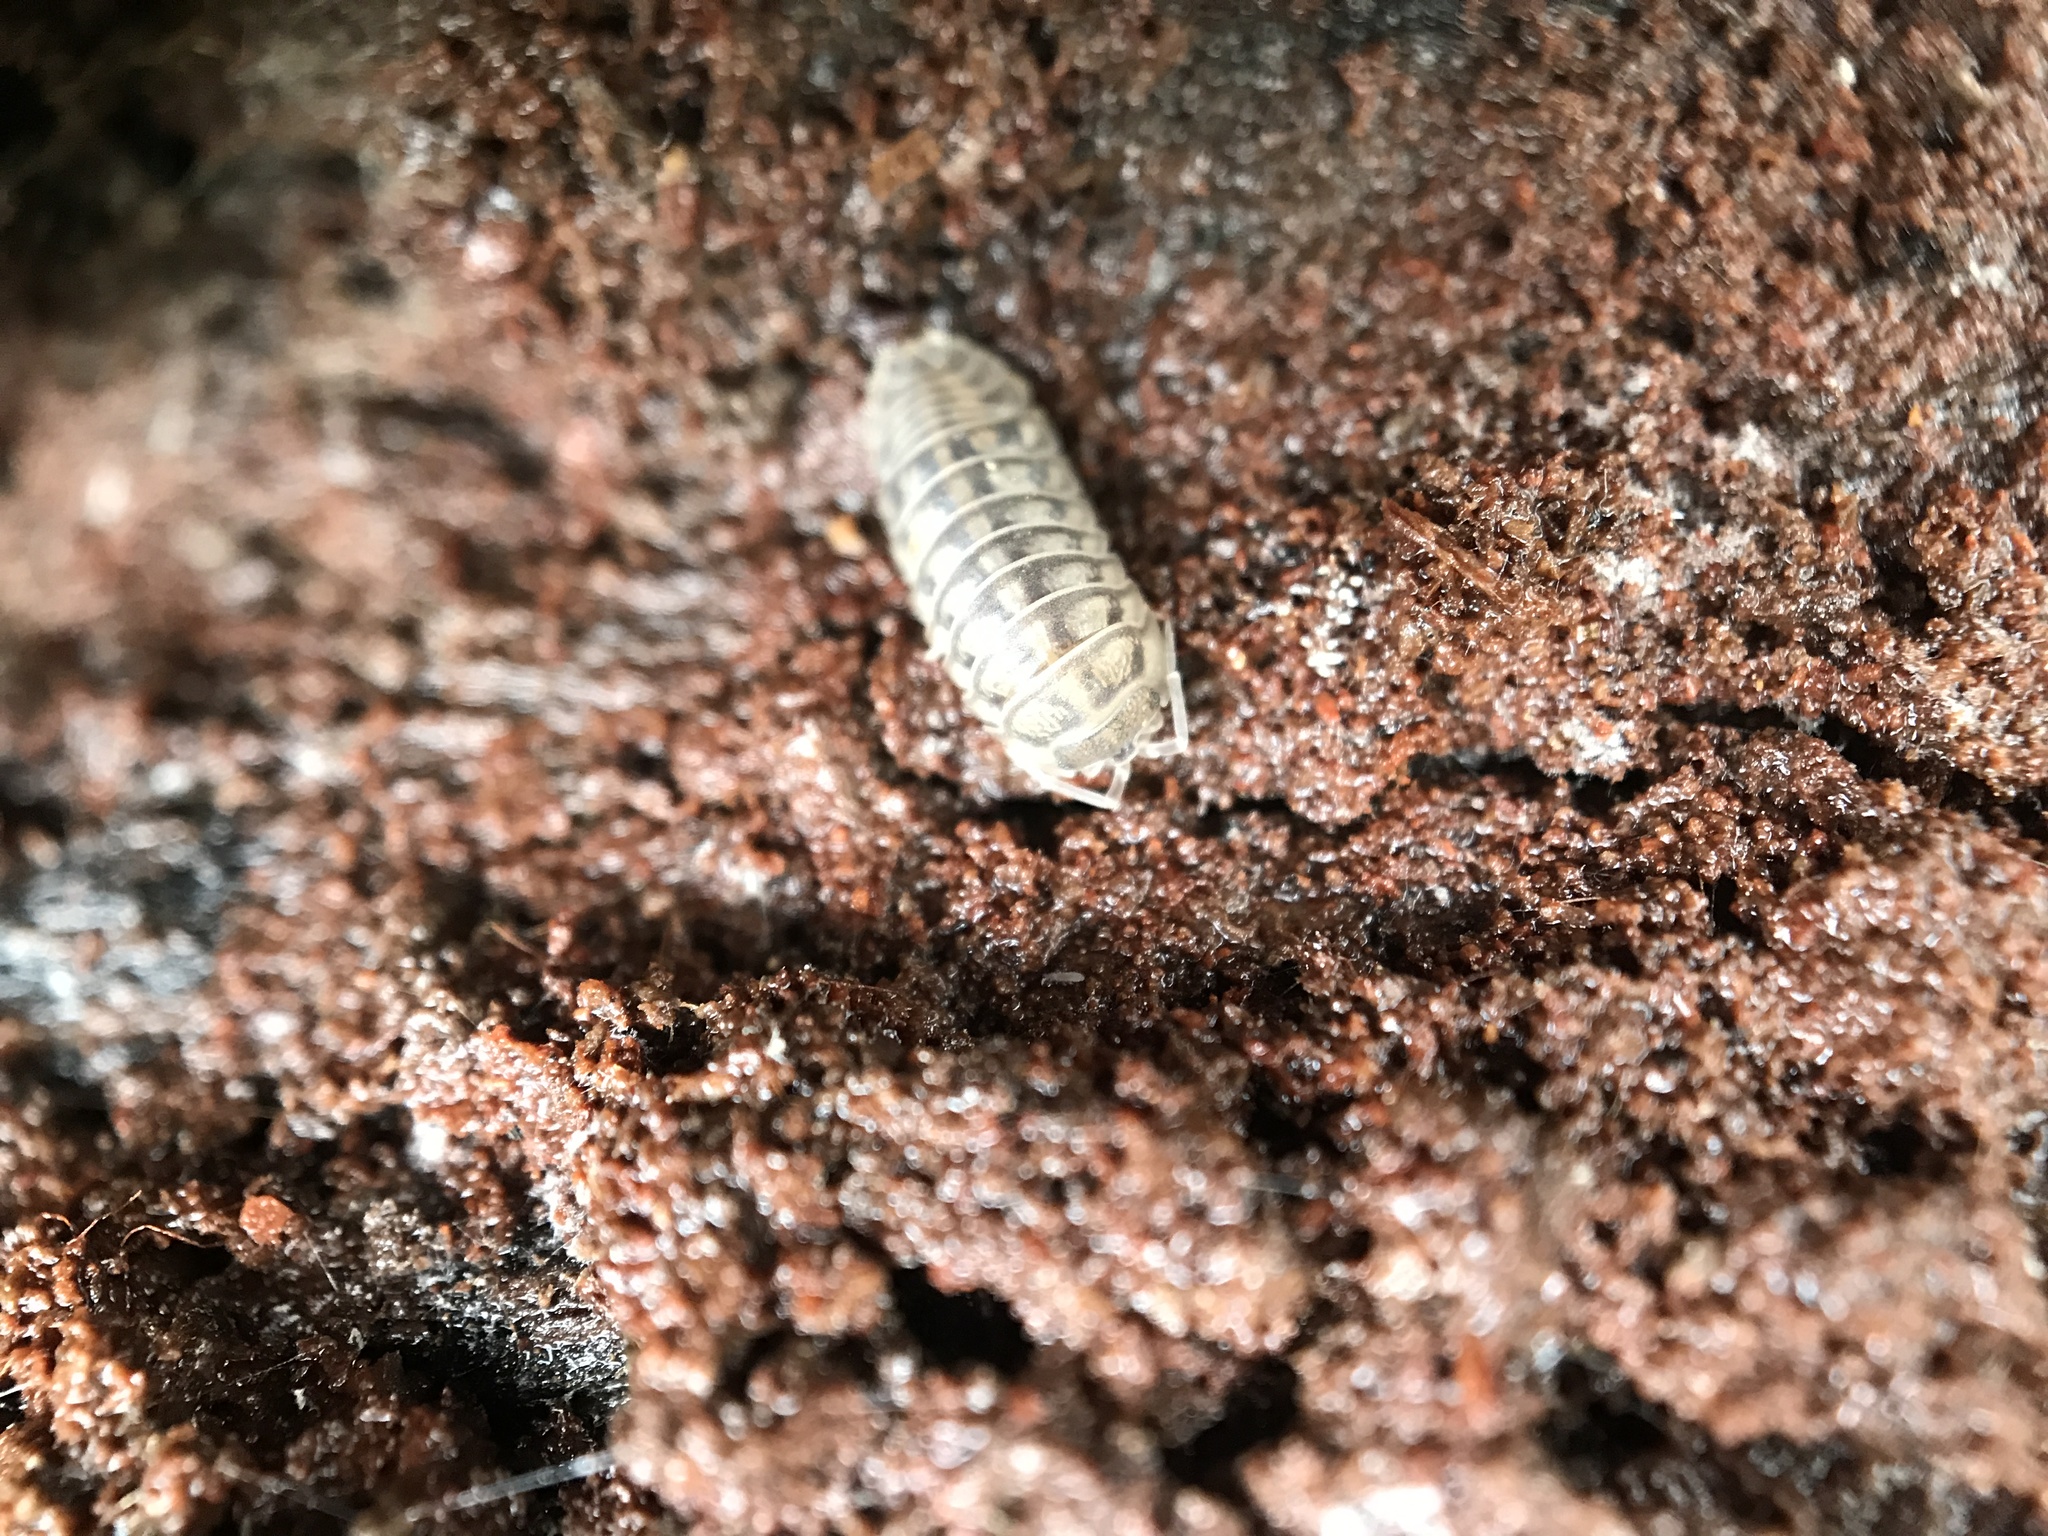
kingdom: Animalia
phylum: Arthropoda
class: Malacostraca
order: Isopoda
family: Armadillidiidae
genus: Armadillidium
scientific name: Armadillidium nasatum
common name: Isopod
